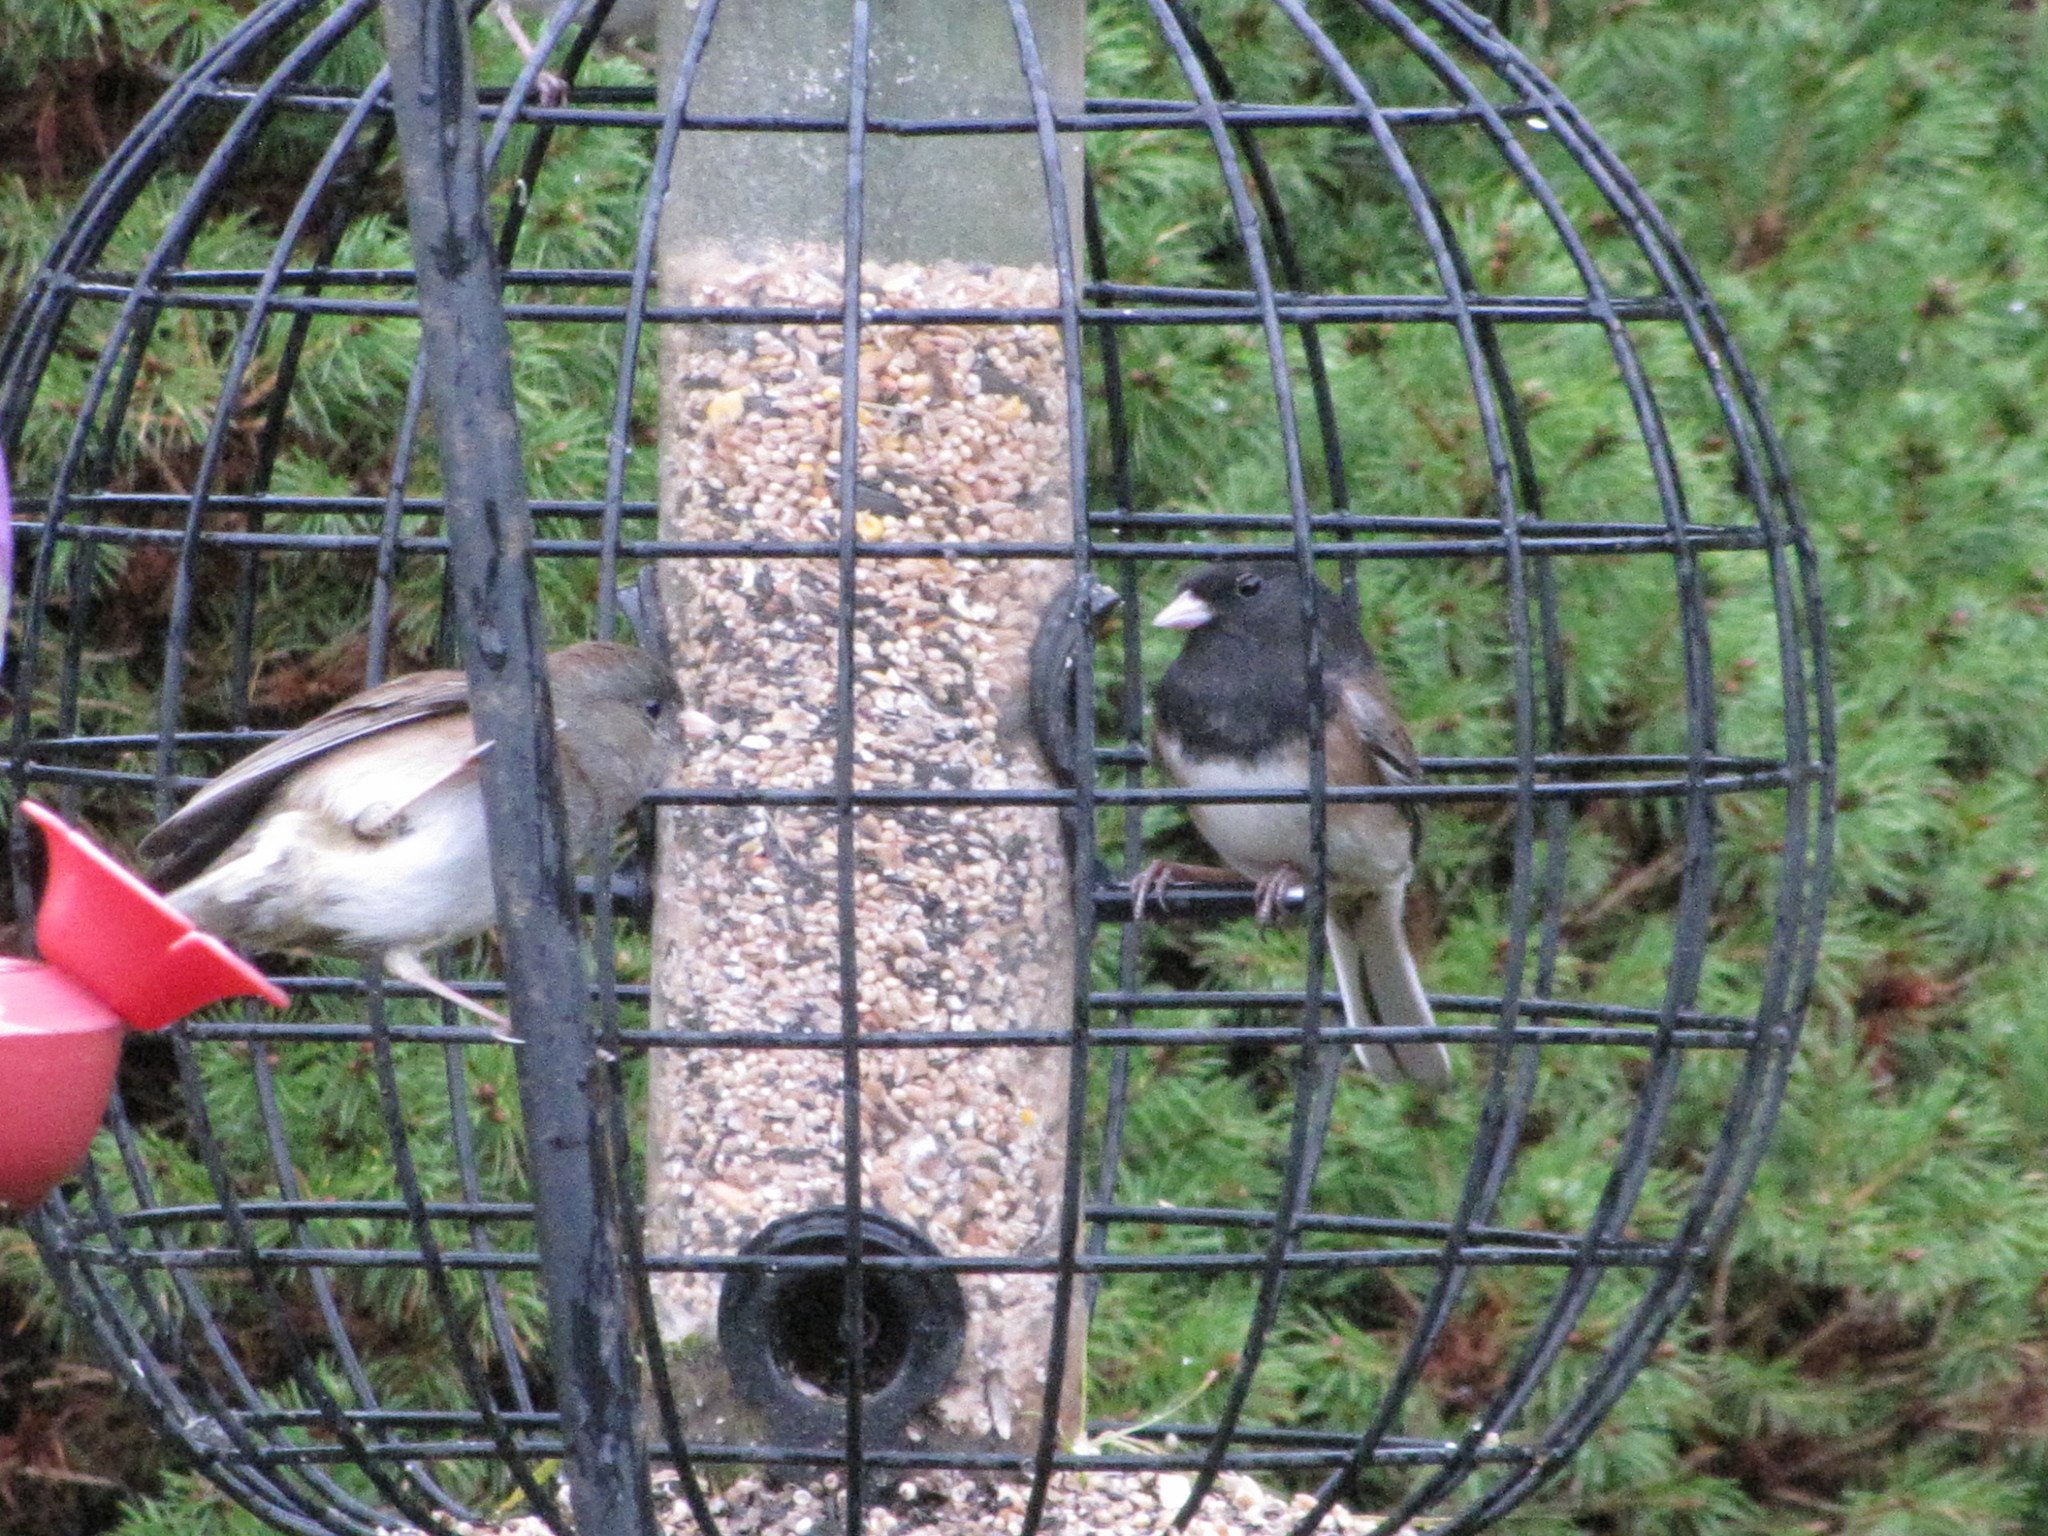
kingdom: Animalia
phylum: Chordata
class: Aves
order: Passeriformes
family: Passerellidae
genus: Junco
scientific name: Junco hyemalis
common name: Dark-eyed junco
